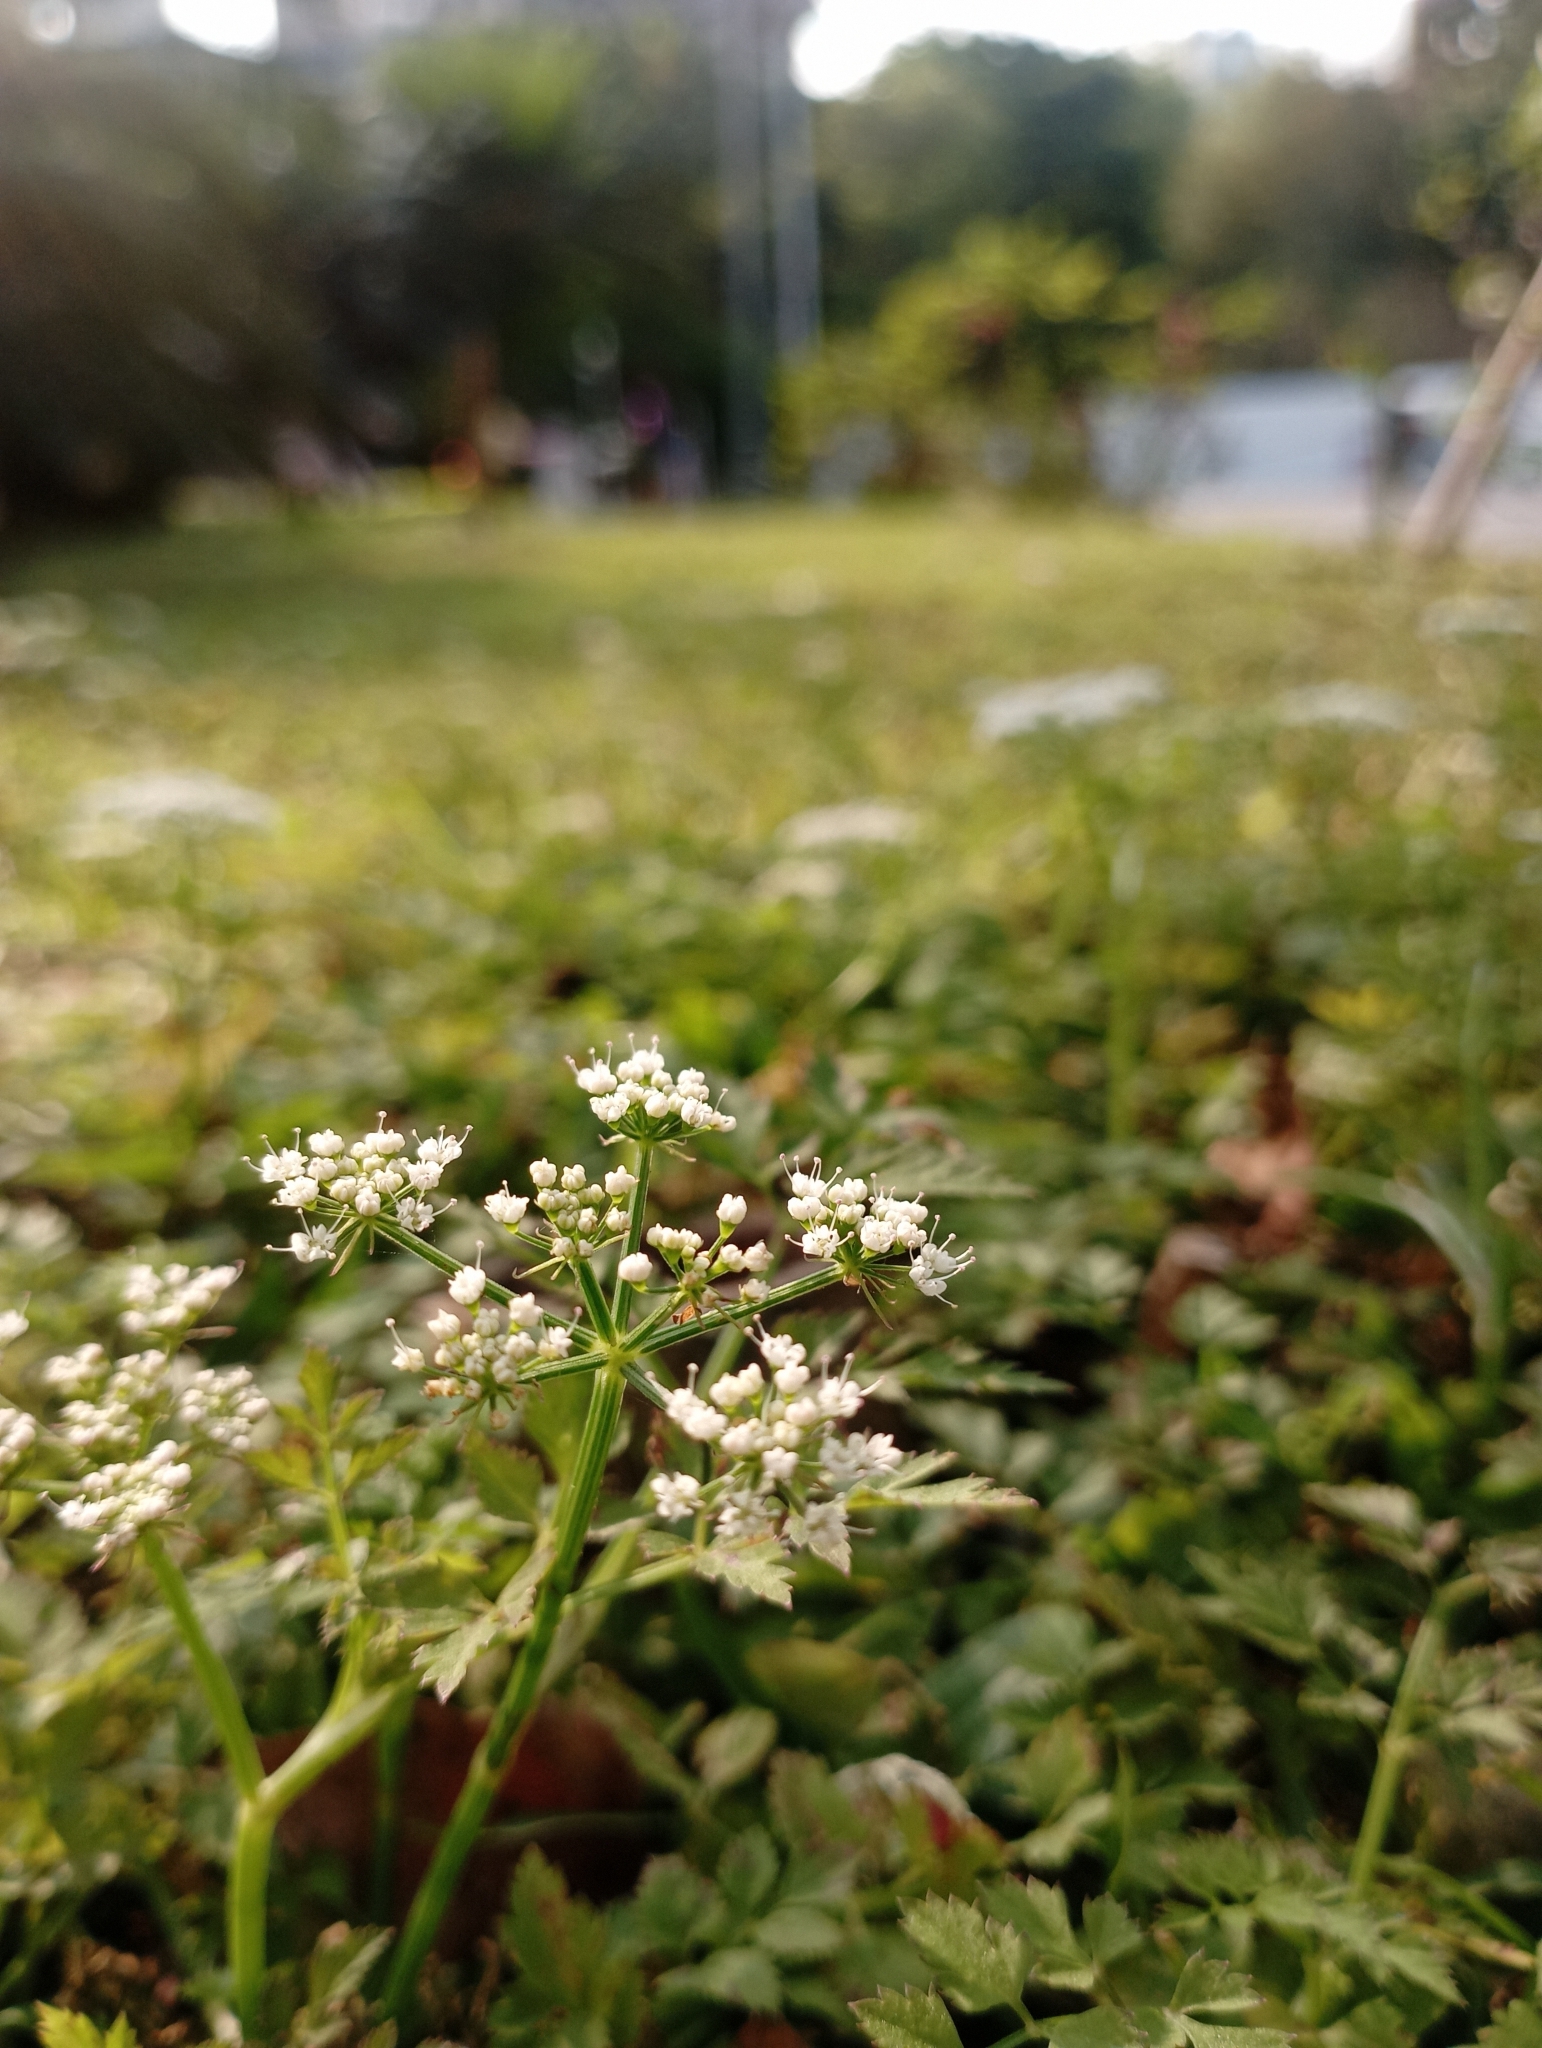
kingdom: Plantae
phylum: Tracheophyta
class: Magnoliopsida
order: Apiales
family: Apiaceae
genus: Oenanthe
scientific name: Oenanthe javanica
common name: Java water-dropwort
